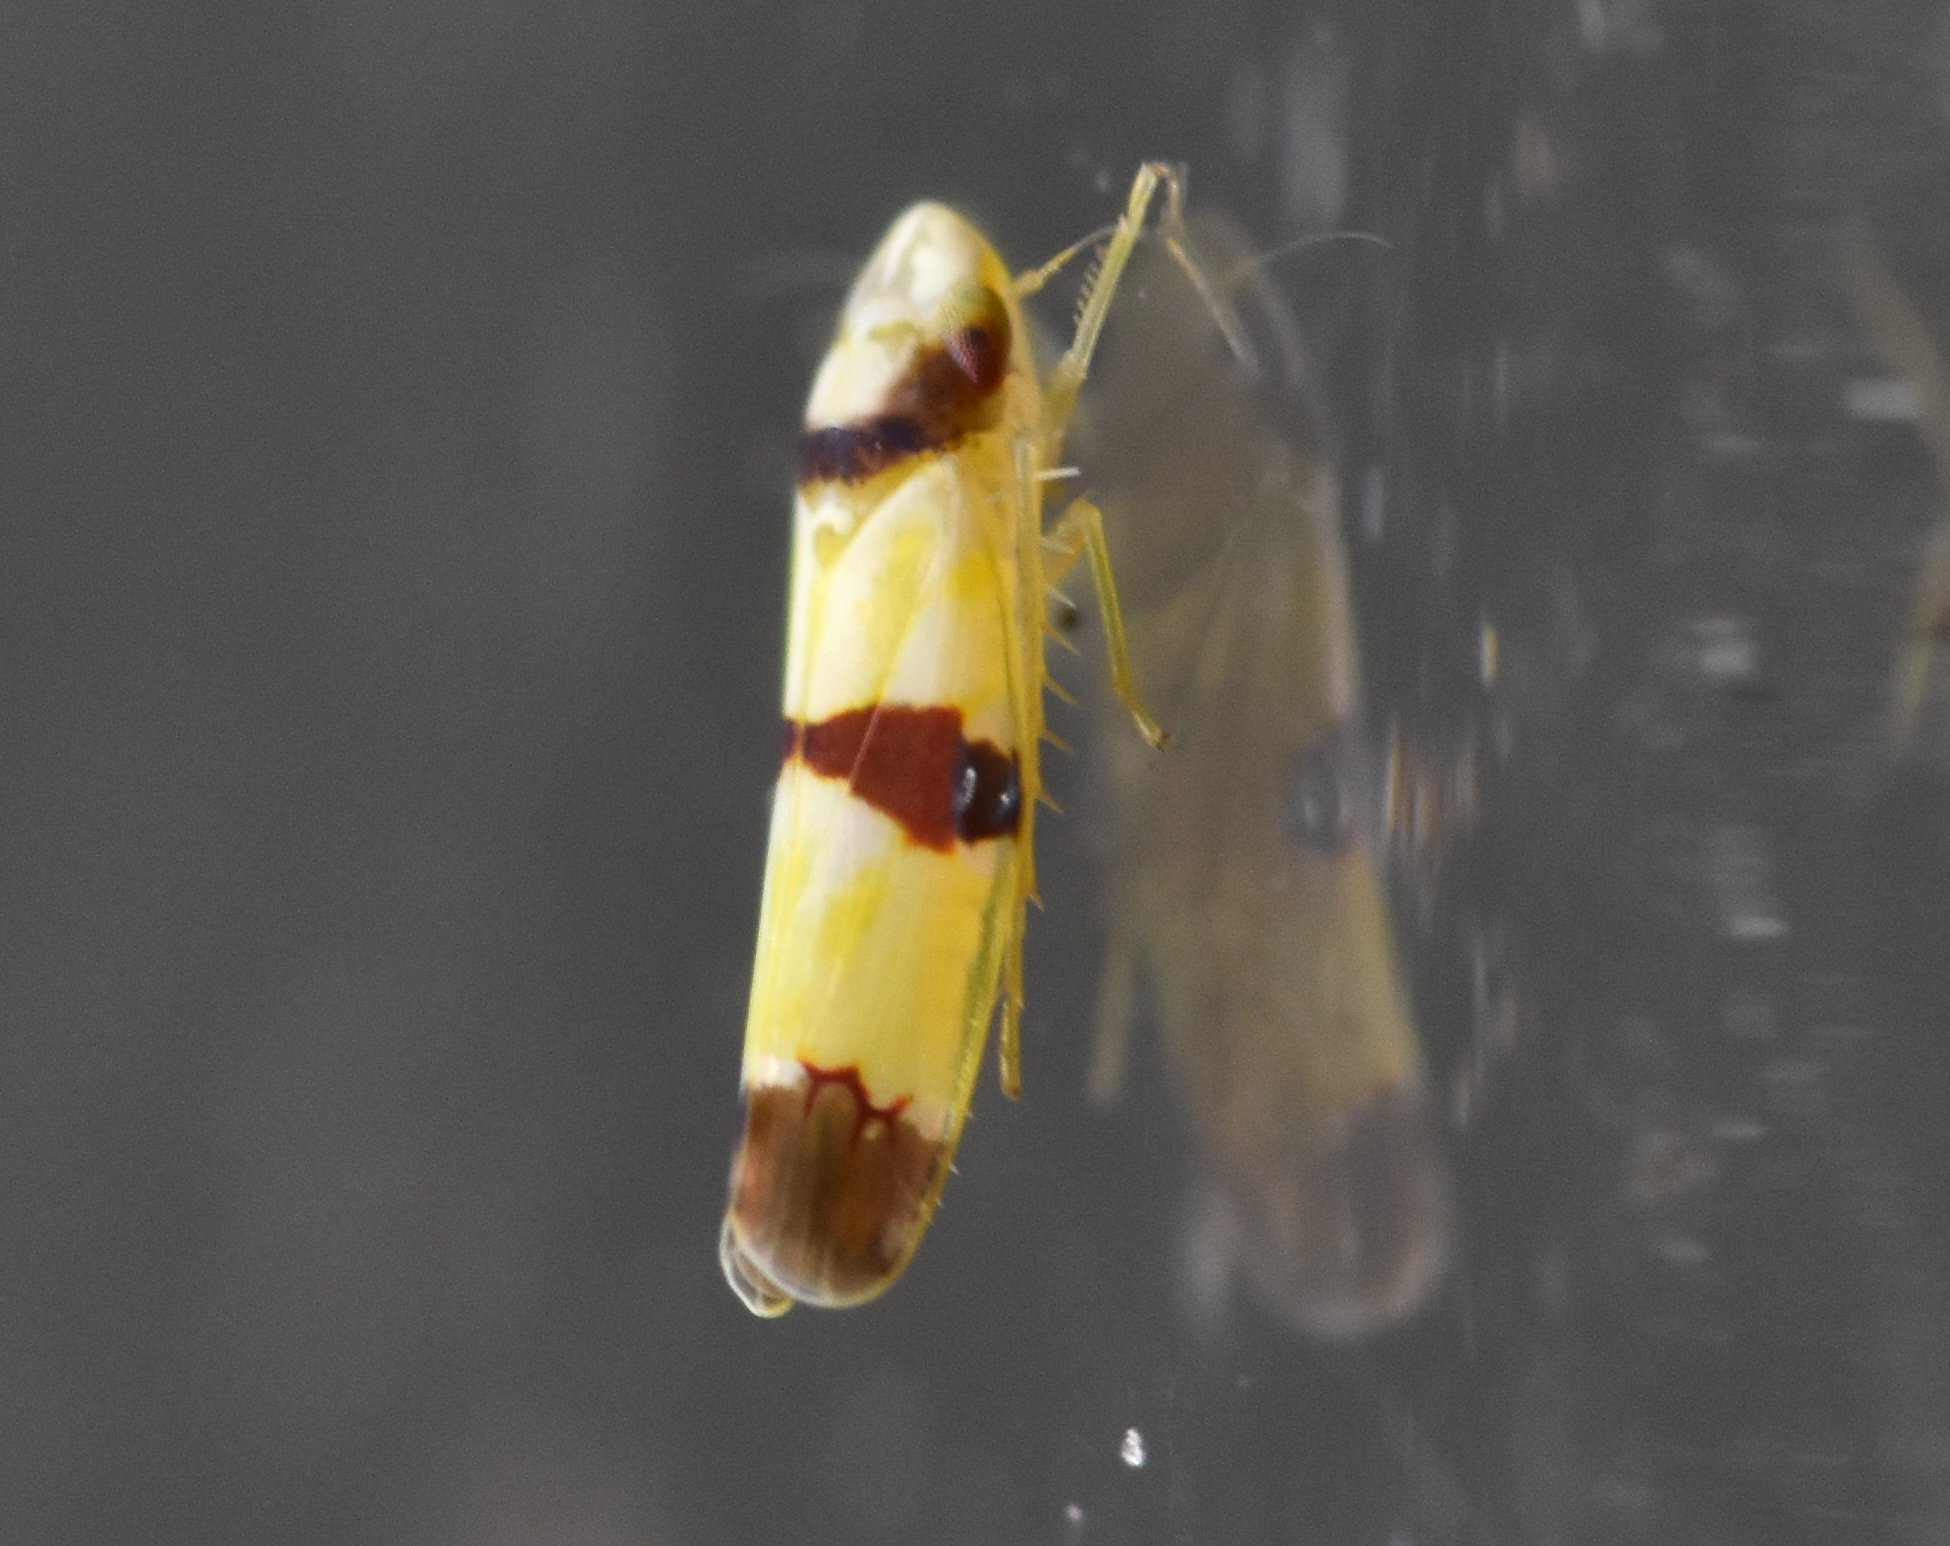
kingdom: Animalia
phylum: Arthropoda
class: Insecta
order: Hemiptera
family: Cicadellidae
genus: Erythroneura
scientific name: Erythroneura calycula
